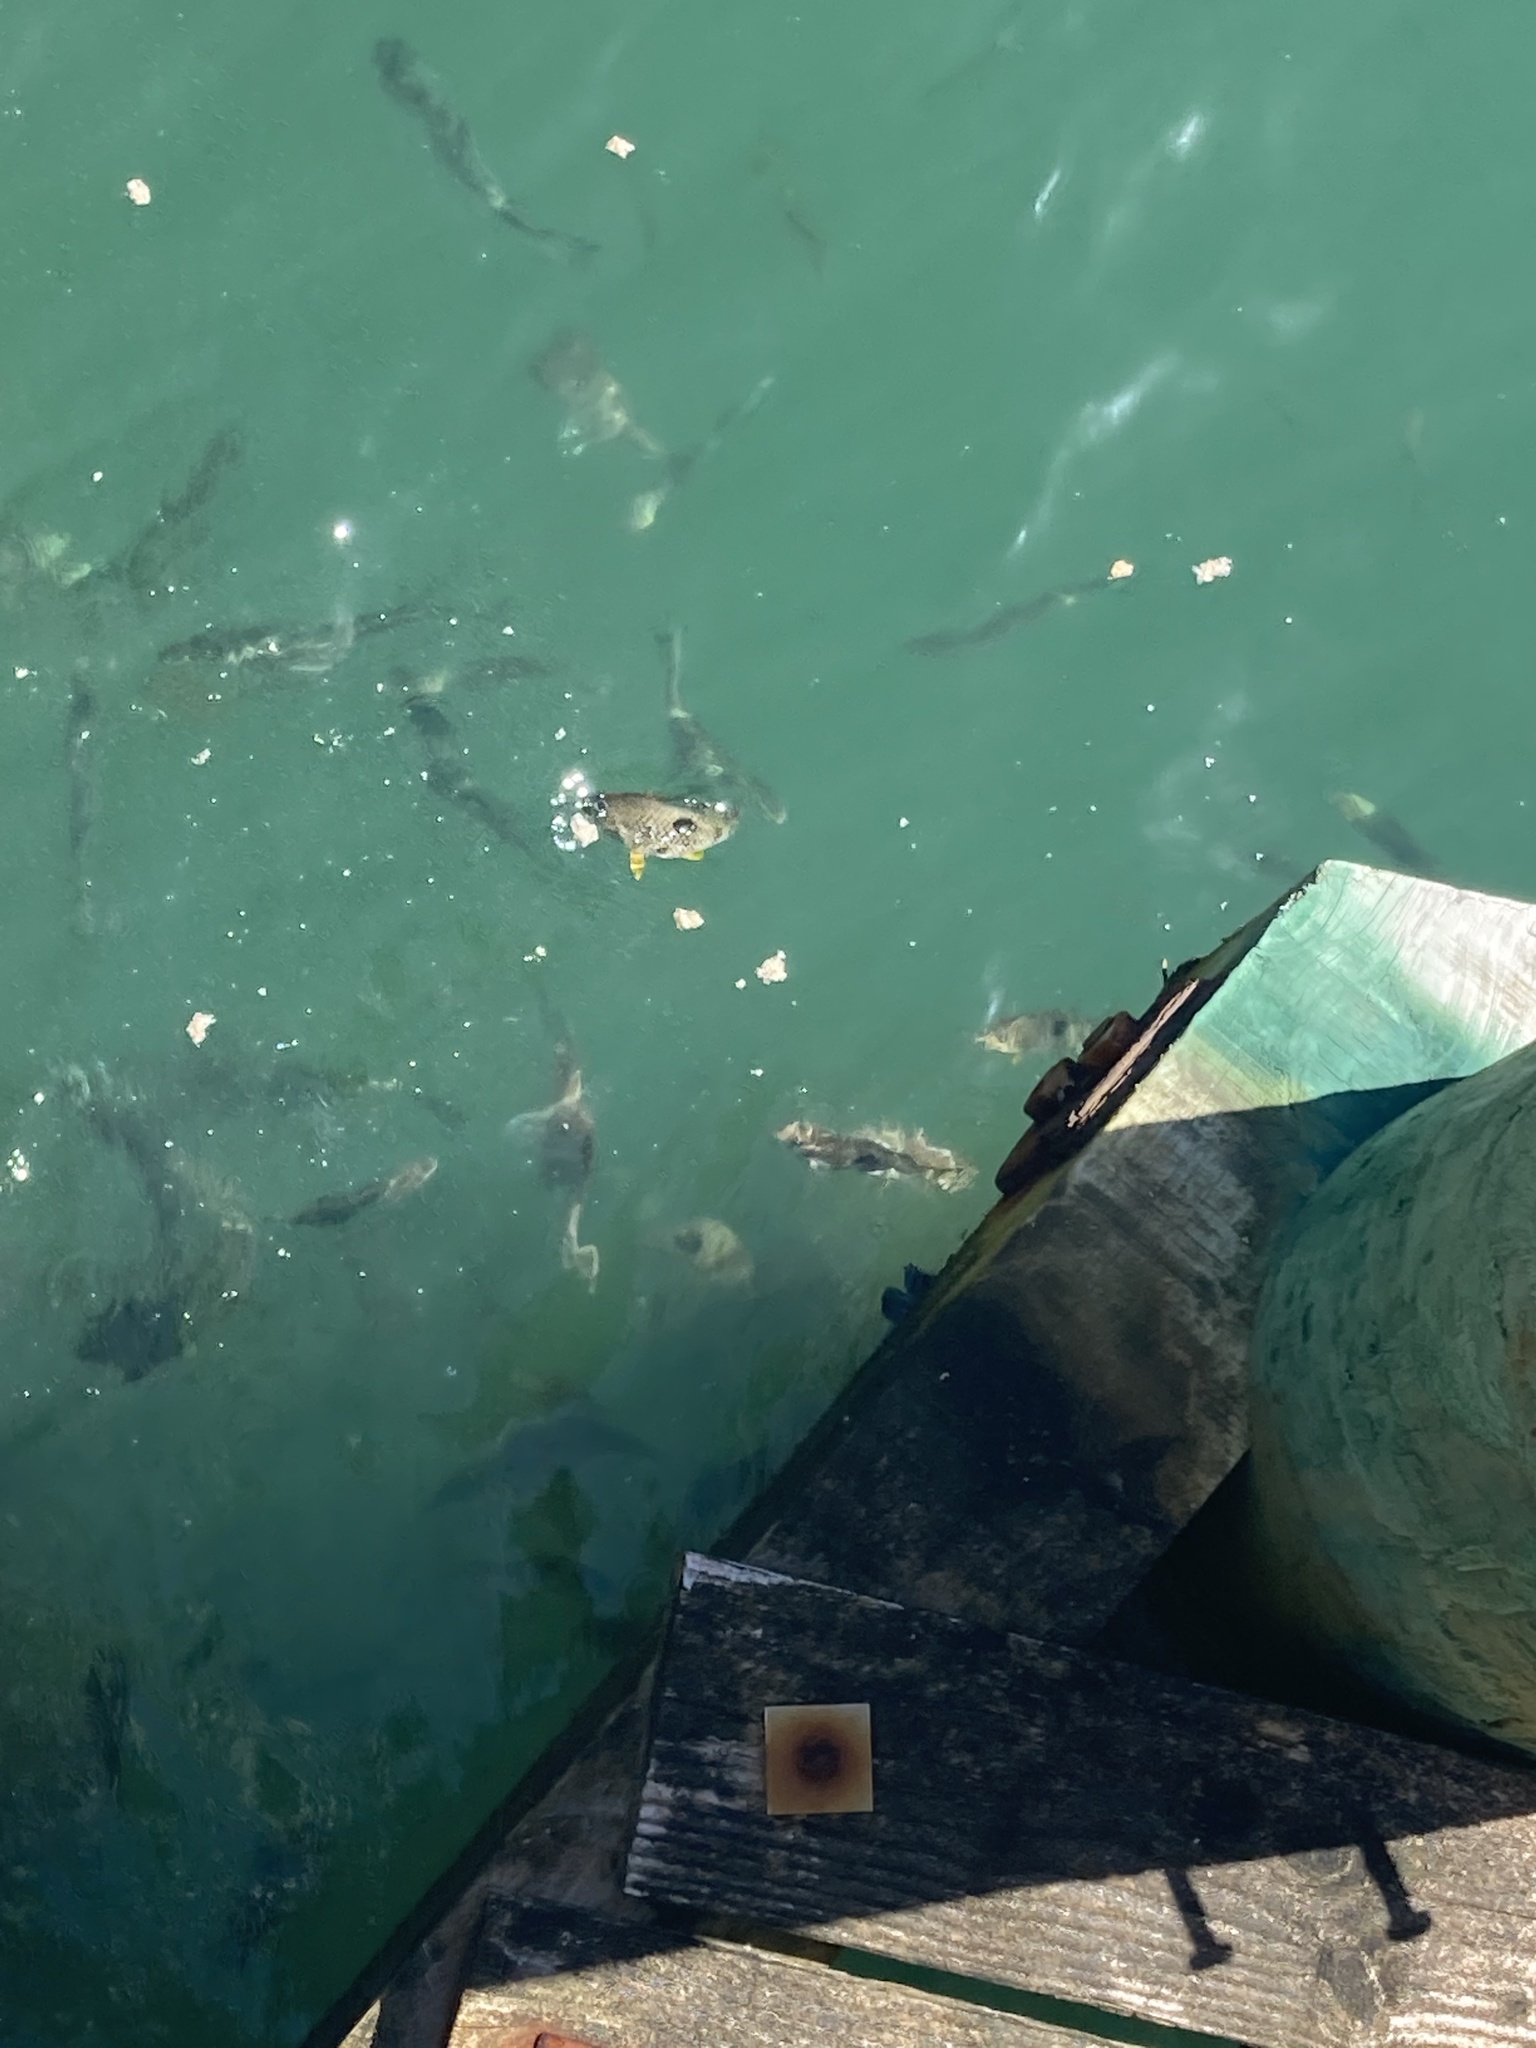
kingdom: Animalia
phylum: Chordata
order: Perciformes
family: Labridae
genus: Notolabrus
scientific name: Notolabrus celidotus
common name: Spotty
